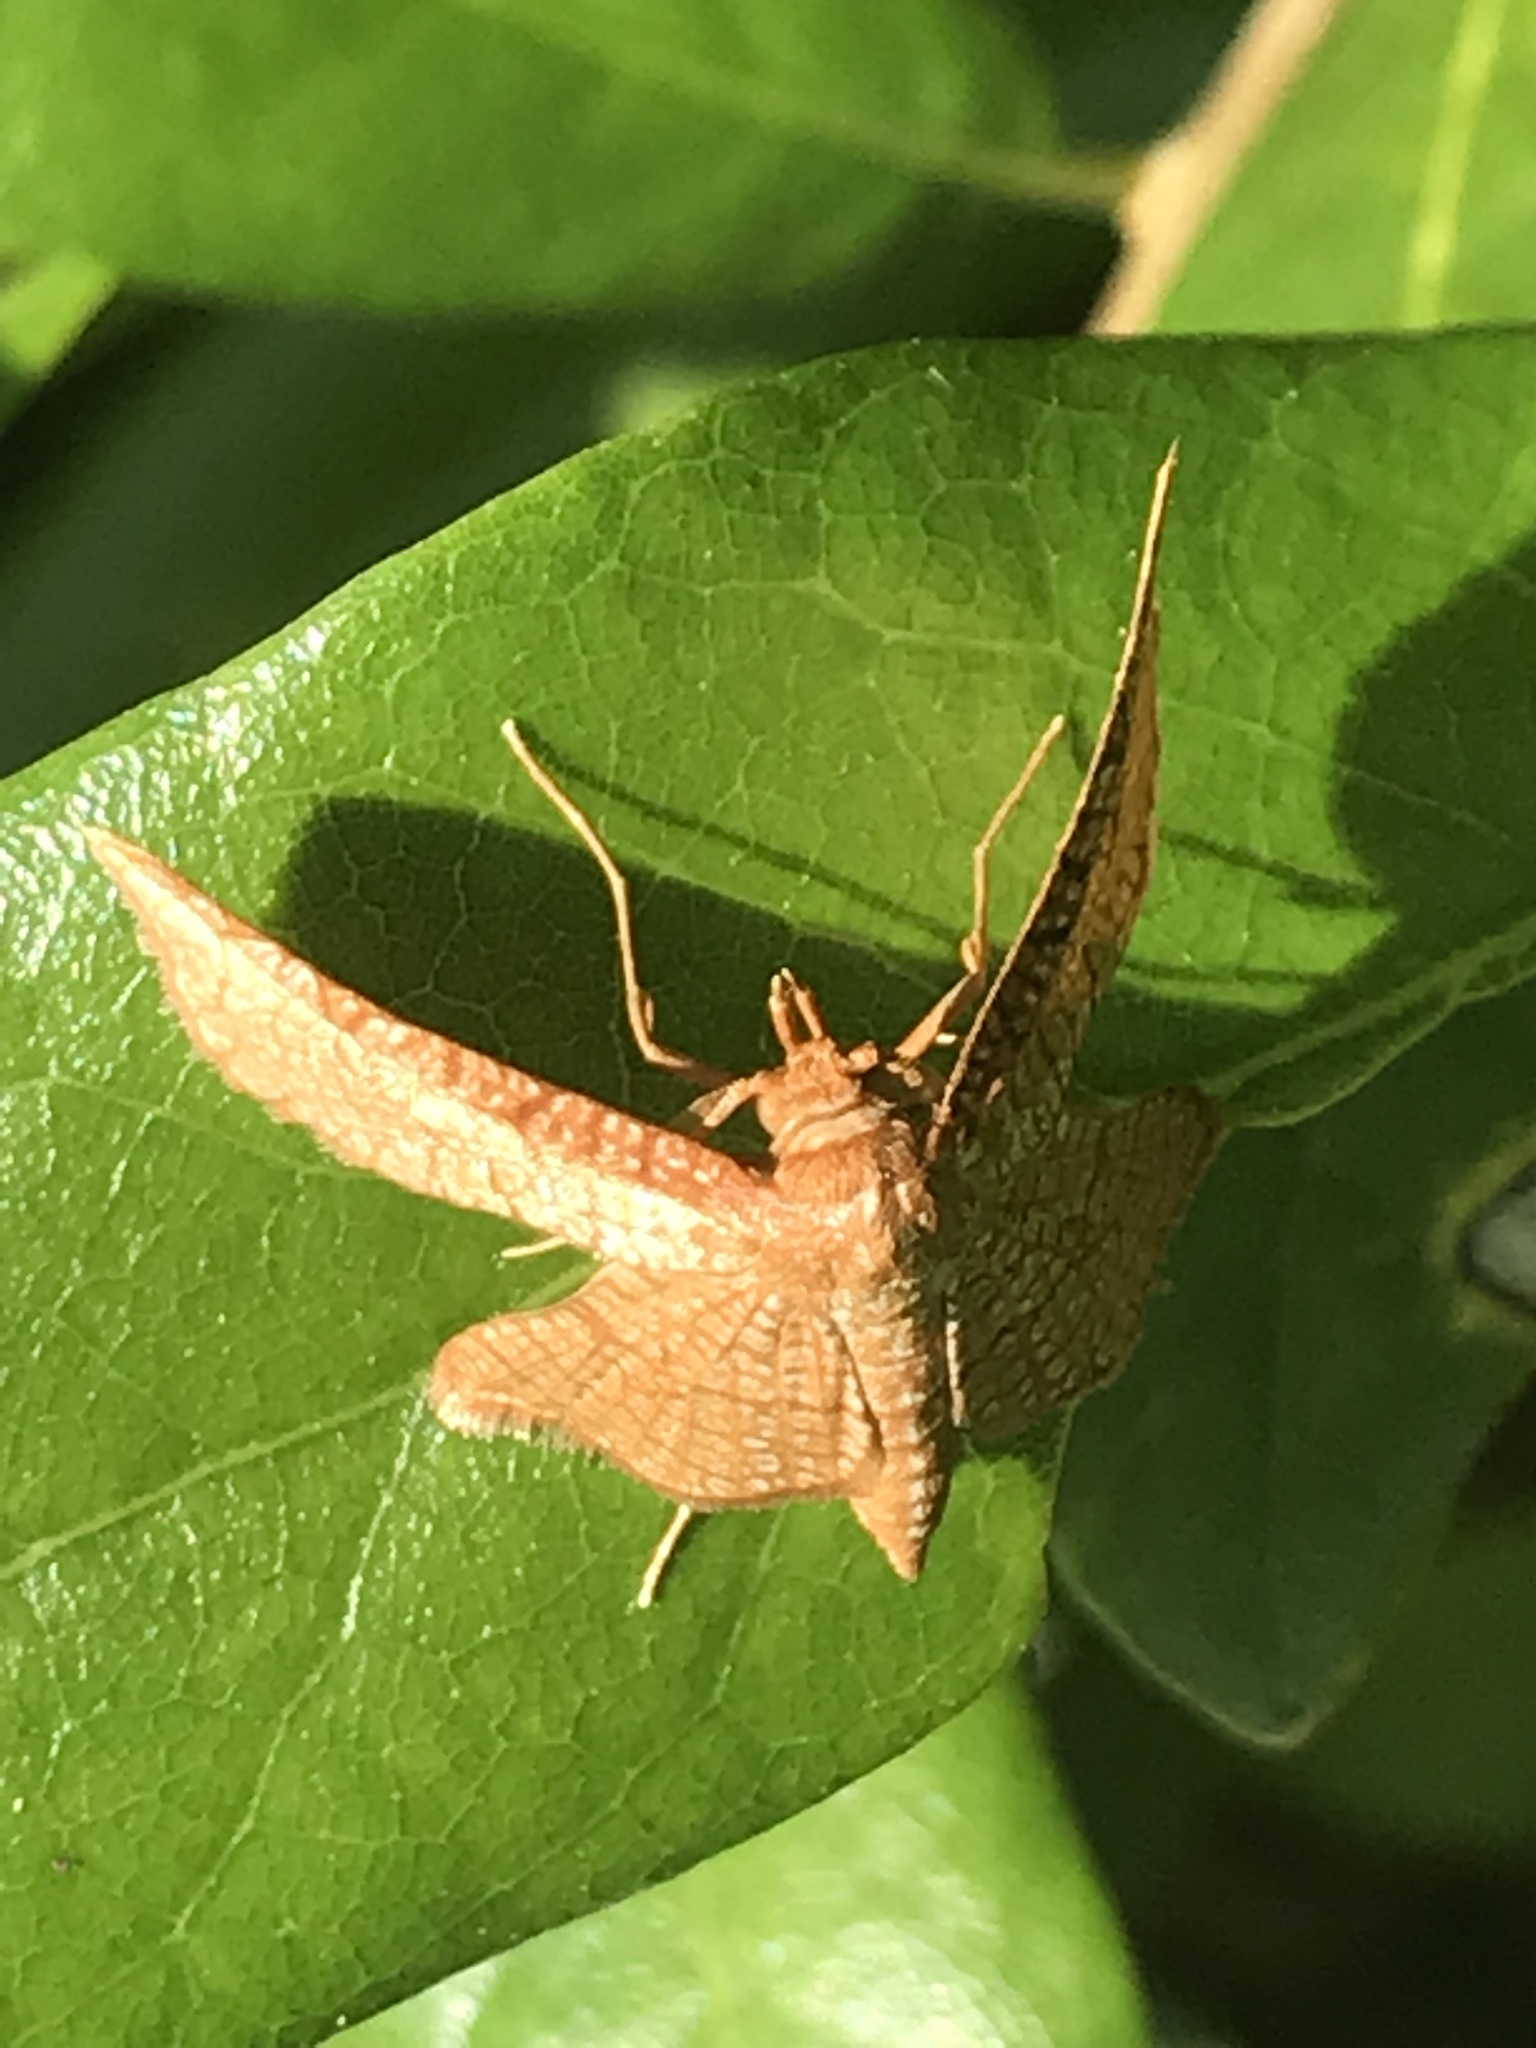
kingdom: Animalia
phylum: Arthropoda
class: Insecta
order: Lepidoptera
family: Thyrididae
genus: Hexeris
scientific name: Hexeris enhydris
